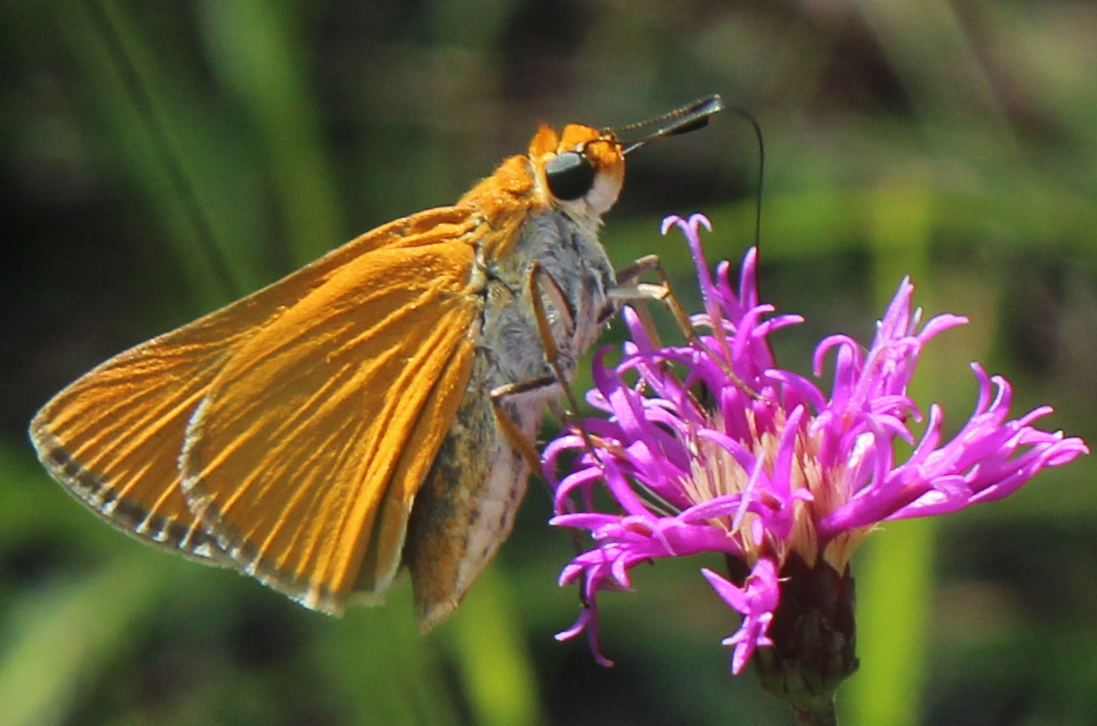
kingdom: Animalia
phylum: Arthropoda
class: Insecta
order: Lepidoptera
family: Hesperiidae
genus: Euphyes
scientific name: Euphyes arpa
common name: Palmetto skipper
